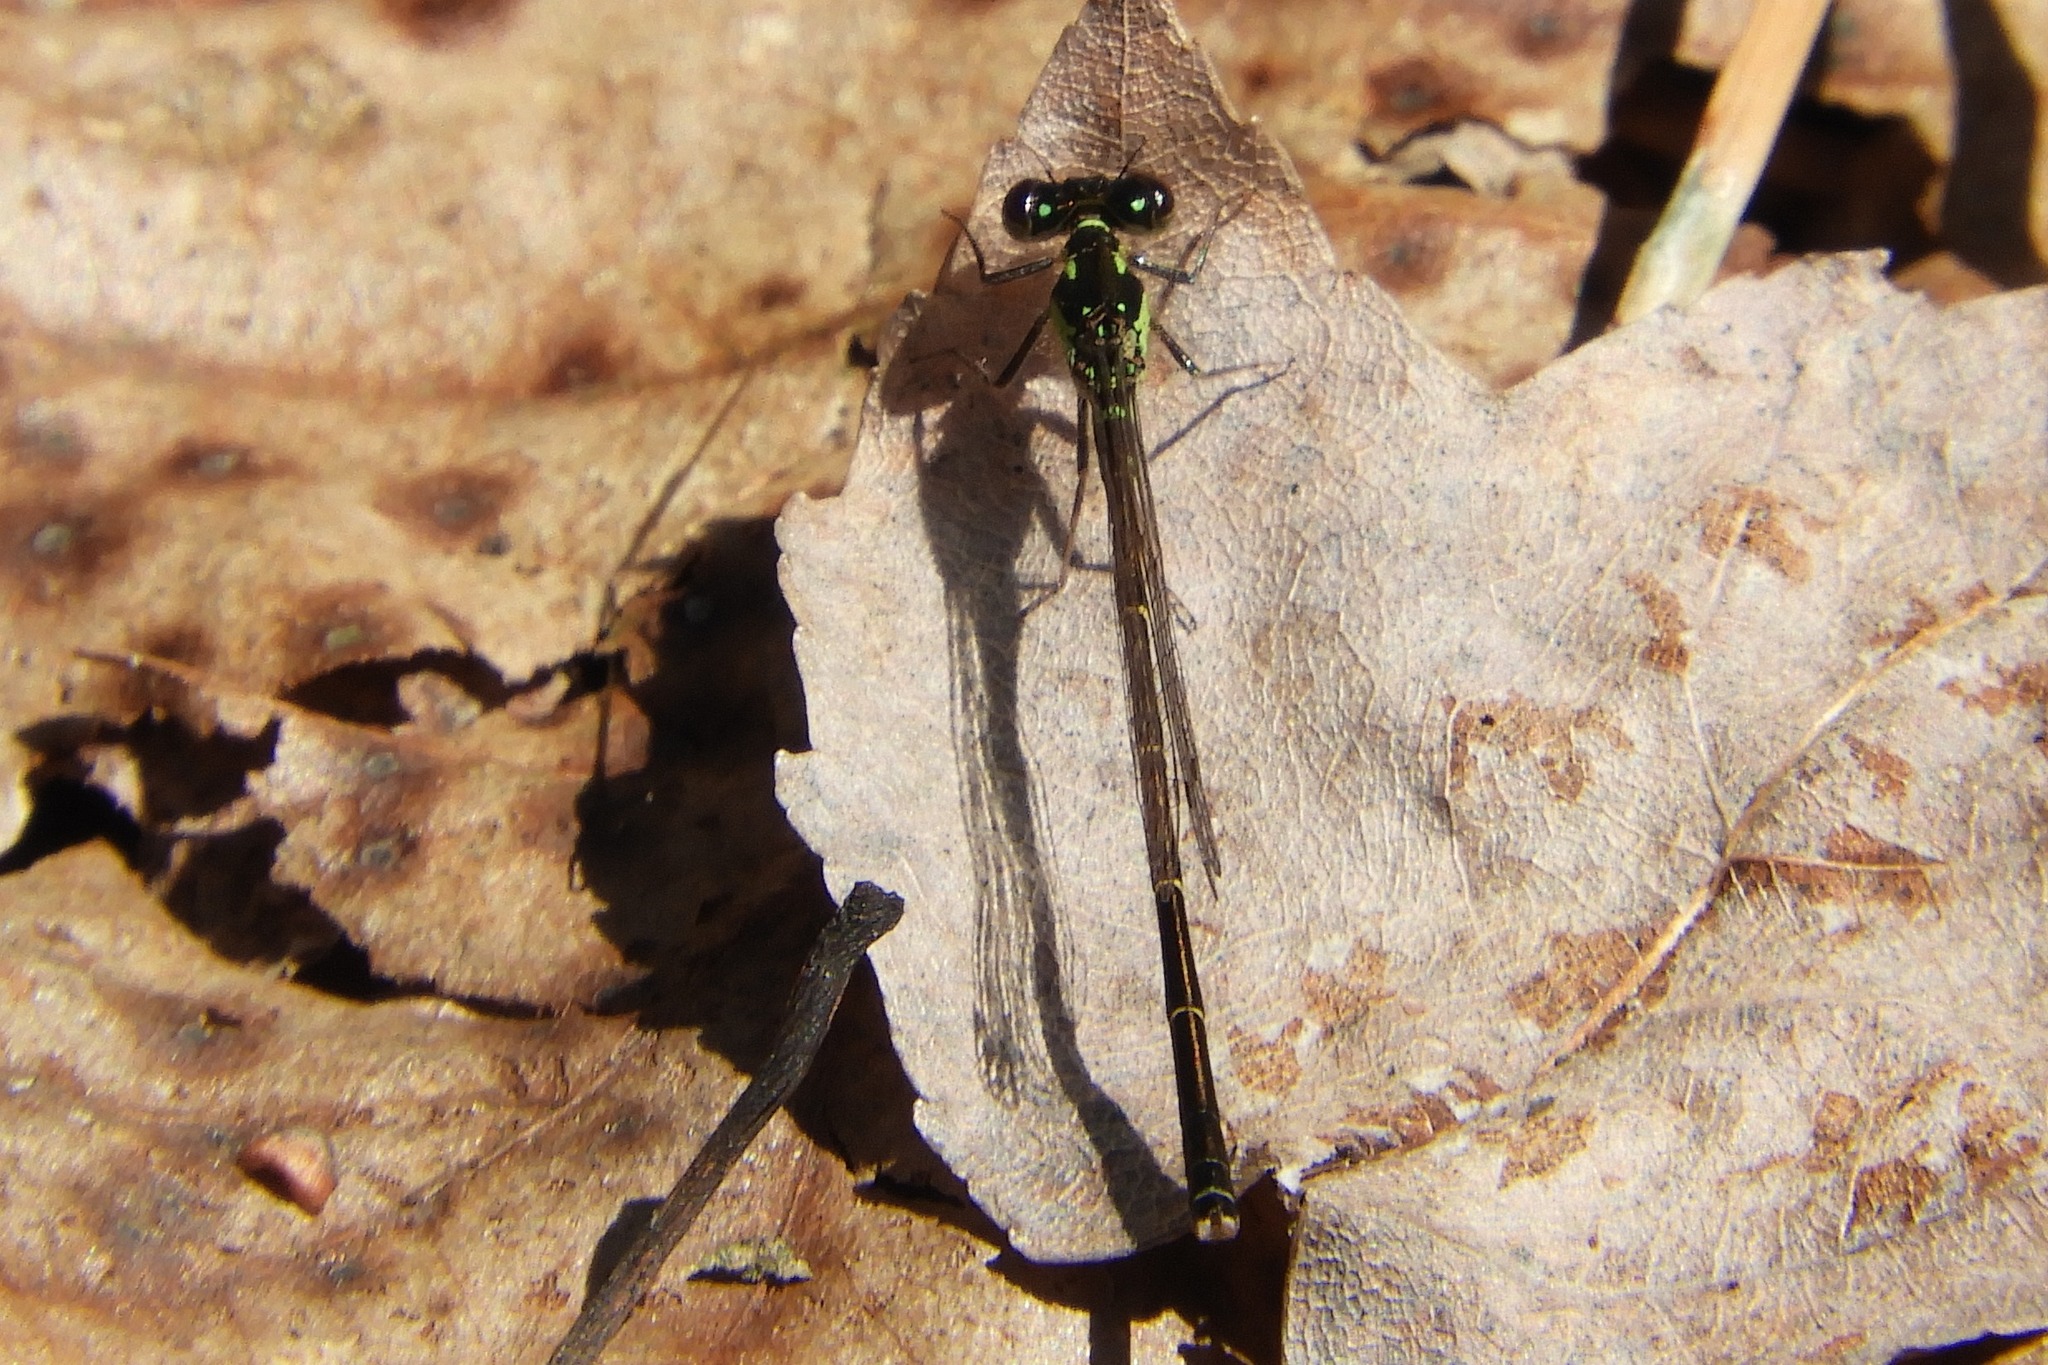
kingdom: Animalia
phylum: Arthropoda
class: Insecta
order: Odonata
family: Coenagrionidae
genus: Ischnura
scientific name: Ischnura posita
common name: Fragile forktail
